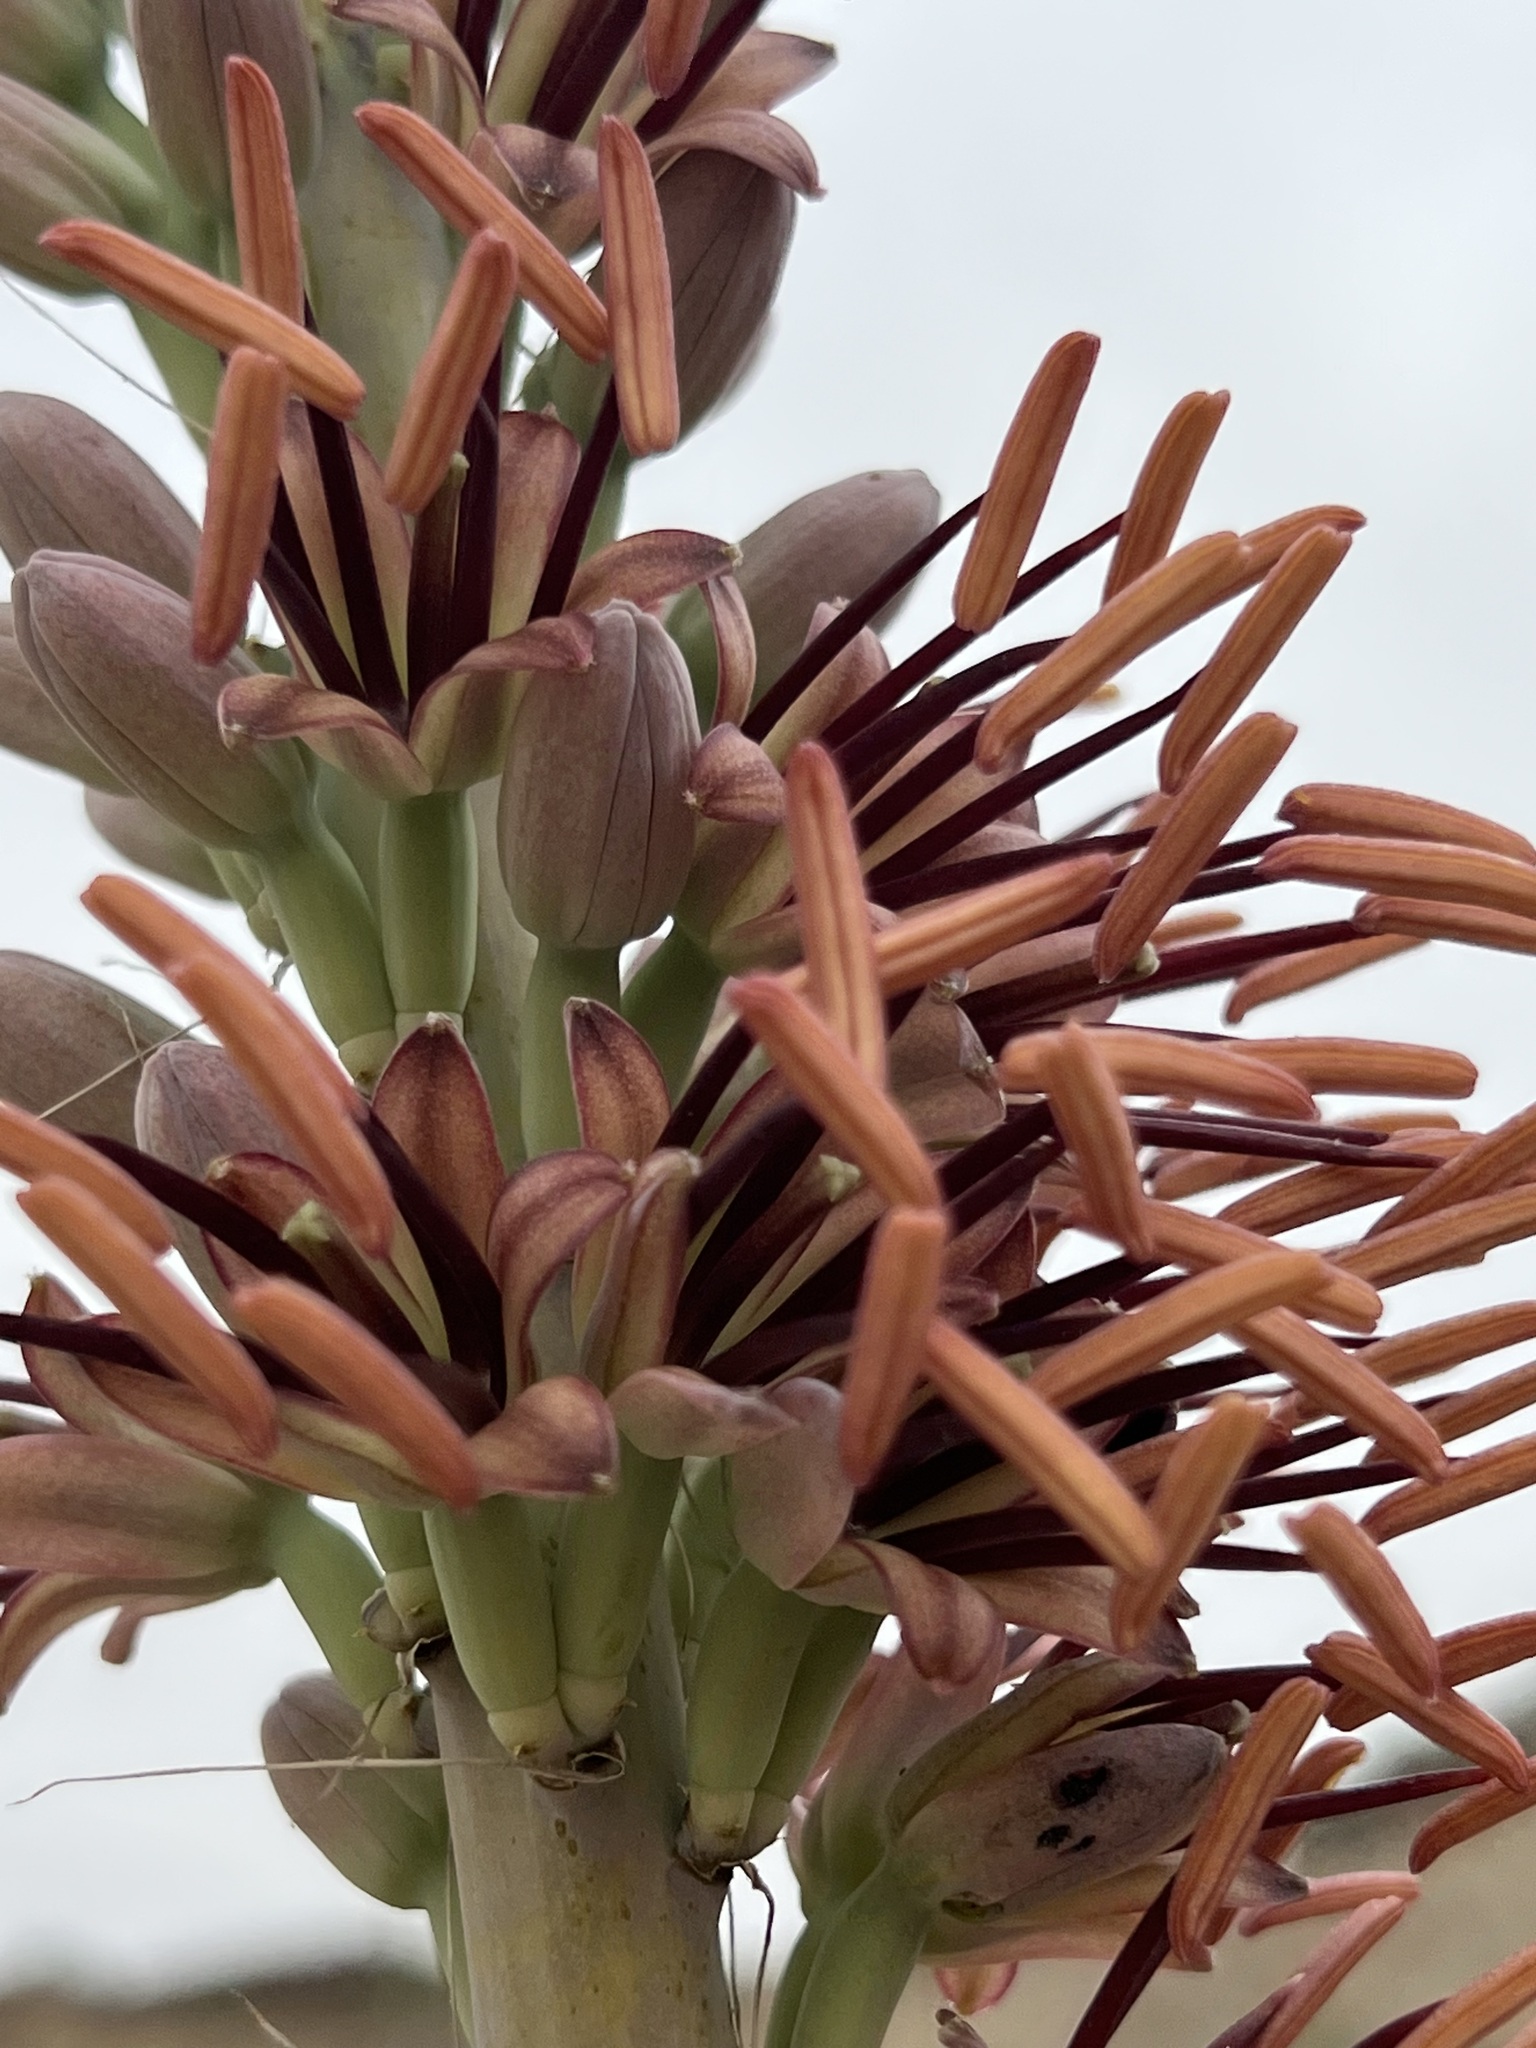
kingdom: Plantae
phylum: Tracheophyta
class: Liliopsida
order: Asparagales
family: Asparagaceae
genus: Agave
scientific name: Agave lechuguilla
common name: Lecheguilla agave
